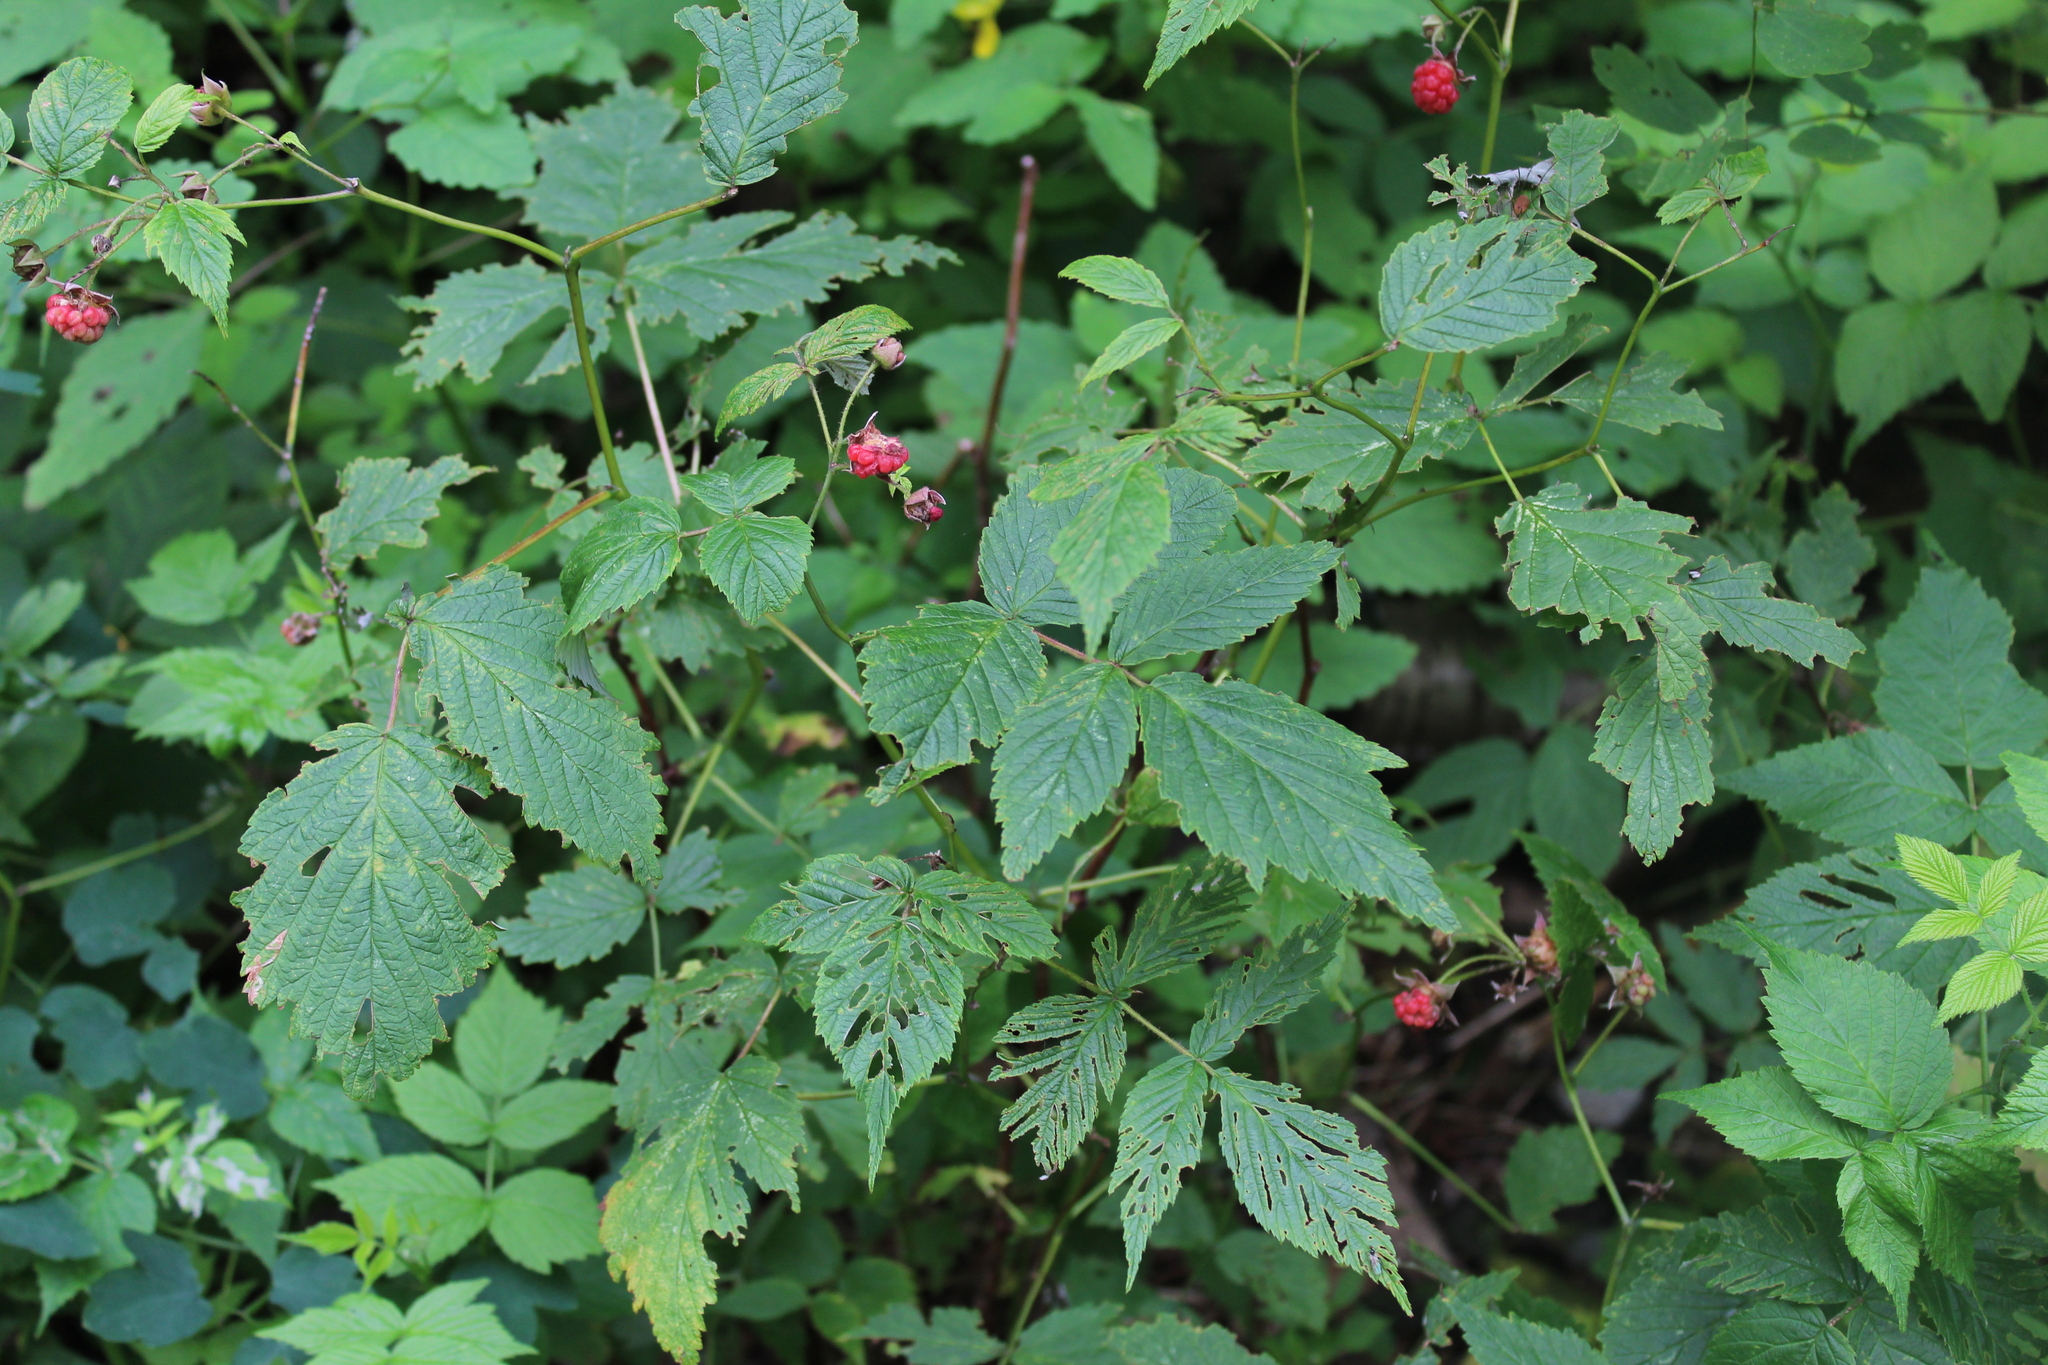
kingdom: Plantae
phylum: Tracheophyta
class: Magnoliopsida
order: Rosales
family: Rosaceae
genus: Rubus
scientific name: Rubus idaeus
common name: Raspberry
